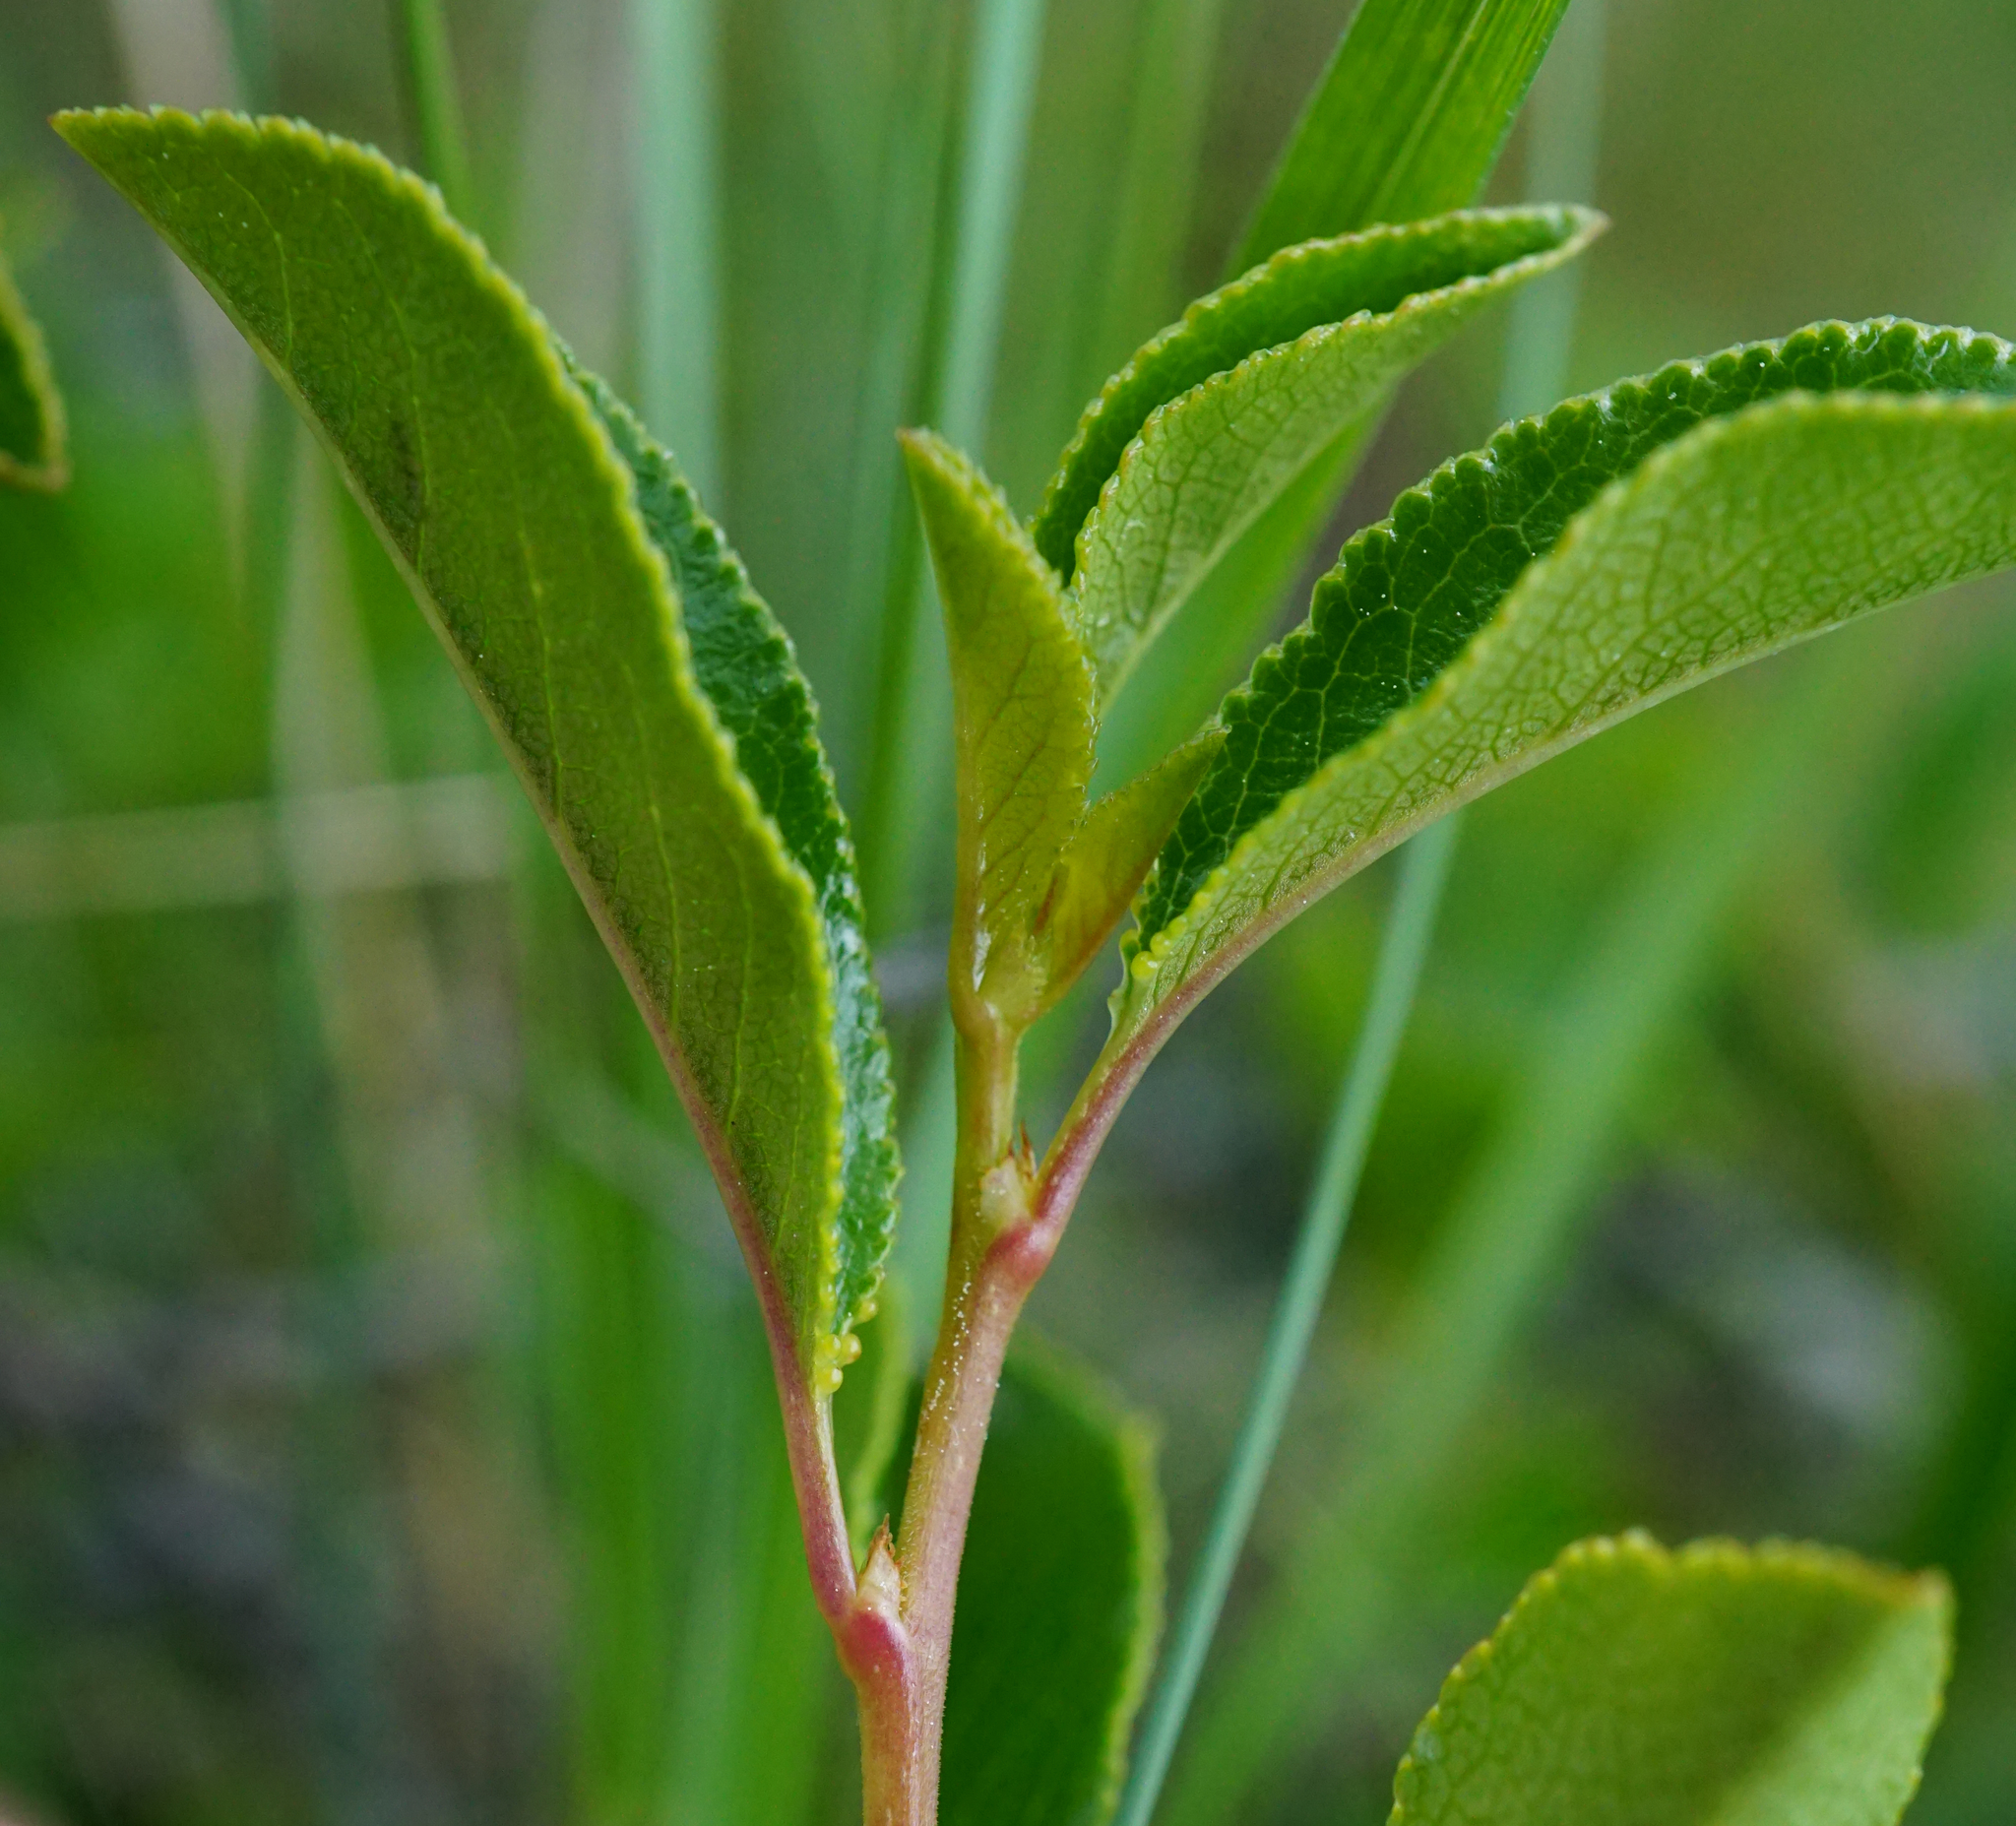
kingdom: Plantae
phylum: Tracheophyta
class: Magnoliopsida
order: Rosales
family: Rosaceae
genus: Prunus
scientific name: Prunus fruticosa
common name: European dwarf cherry
